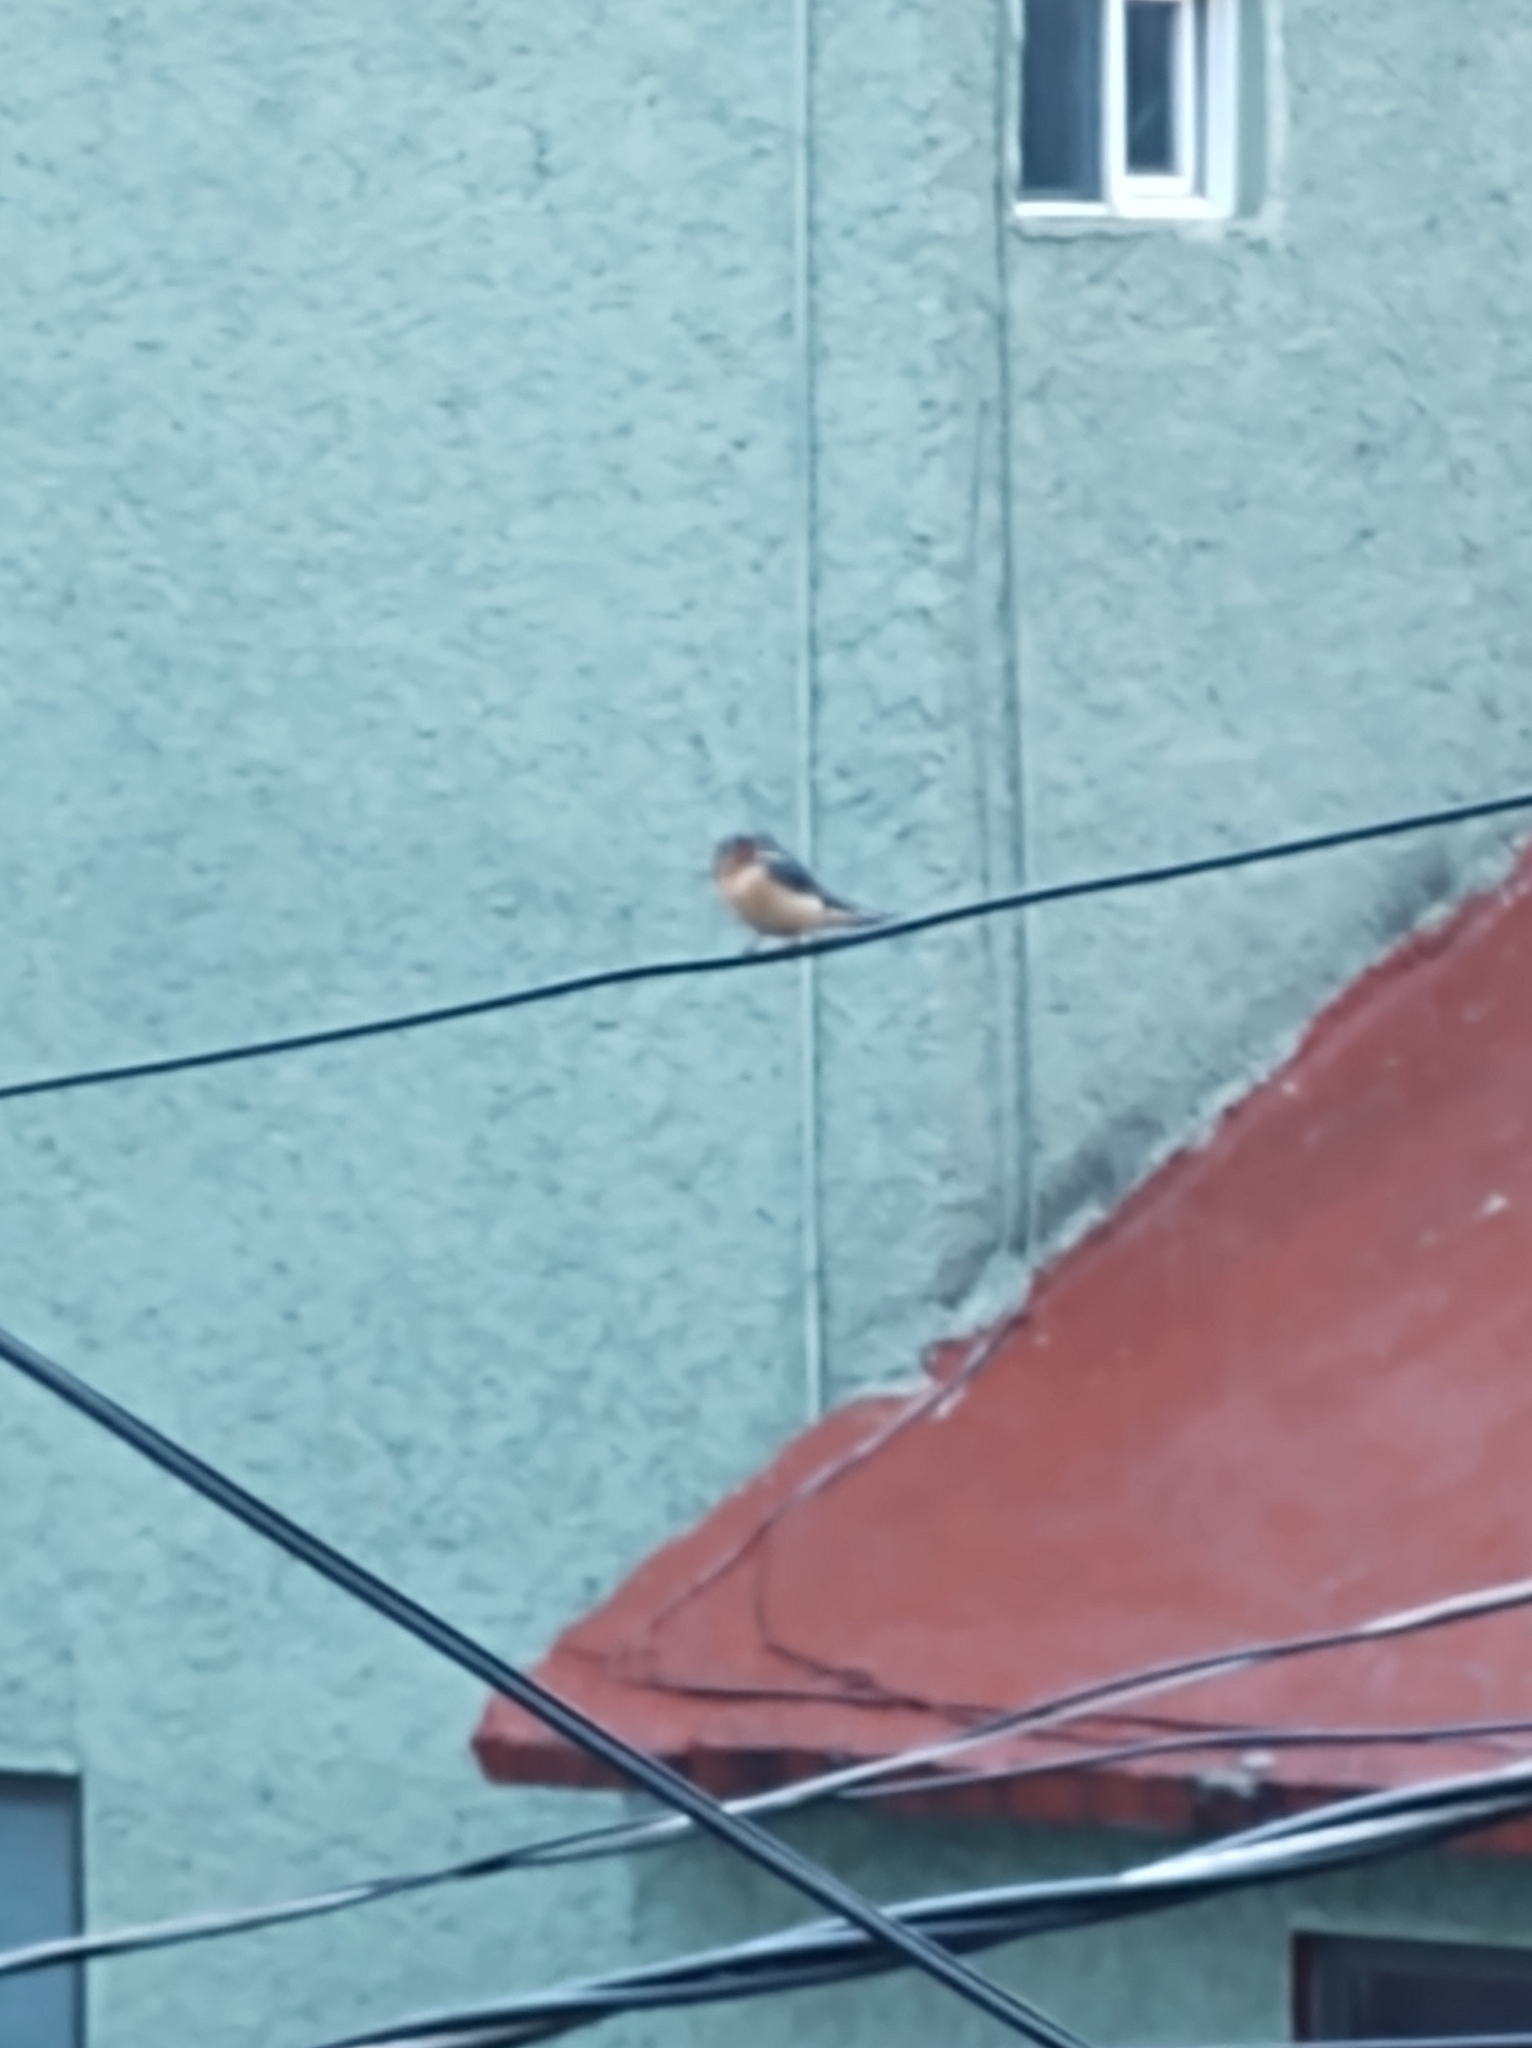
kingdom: Animalia
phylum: Chordata
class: Aves
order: Passeriformes
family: Hirundinidae
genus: Hirundo
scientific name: Hirundo rustica
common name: Barn swallow
